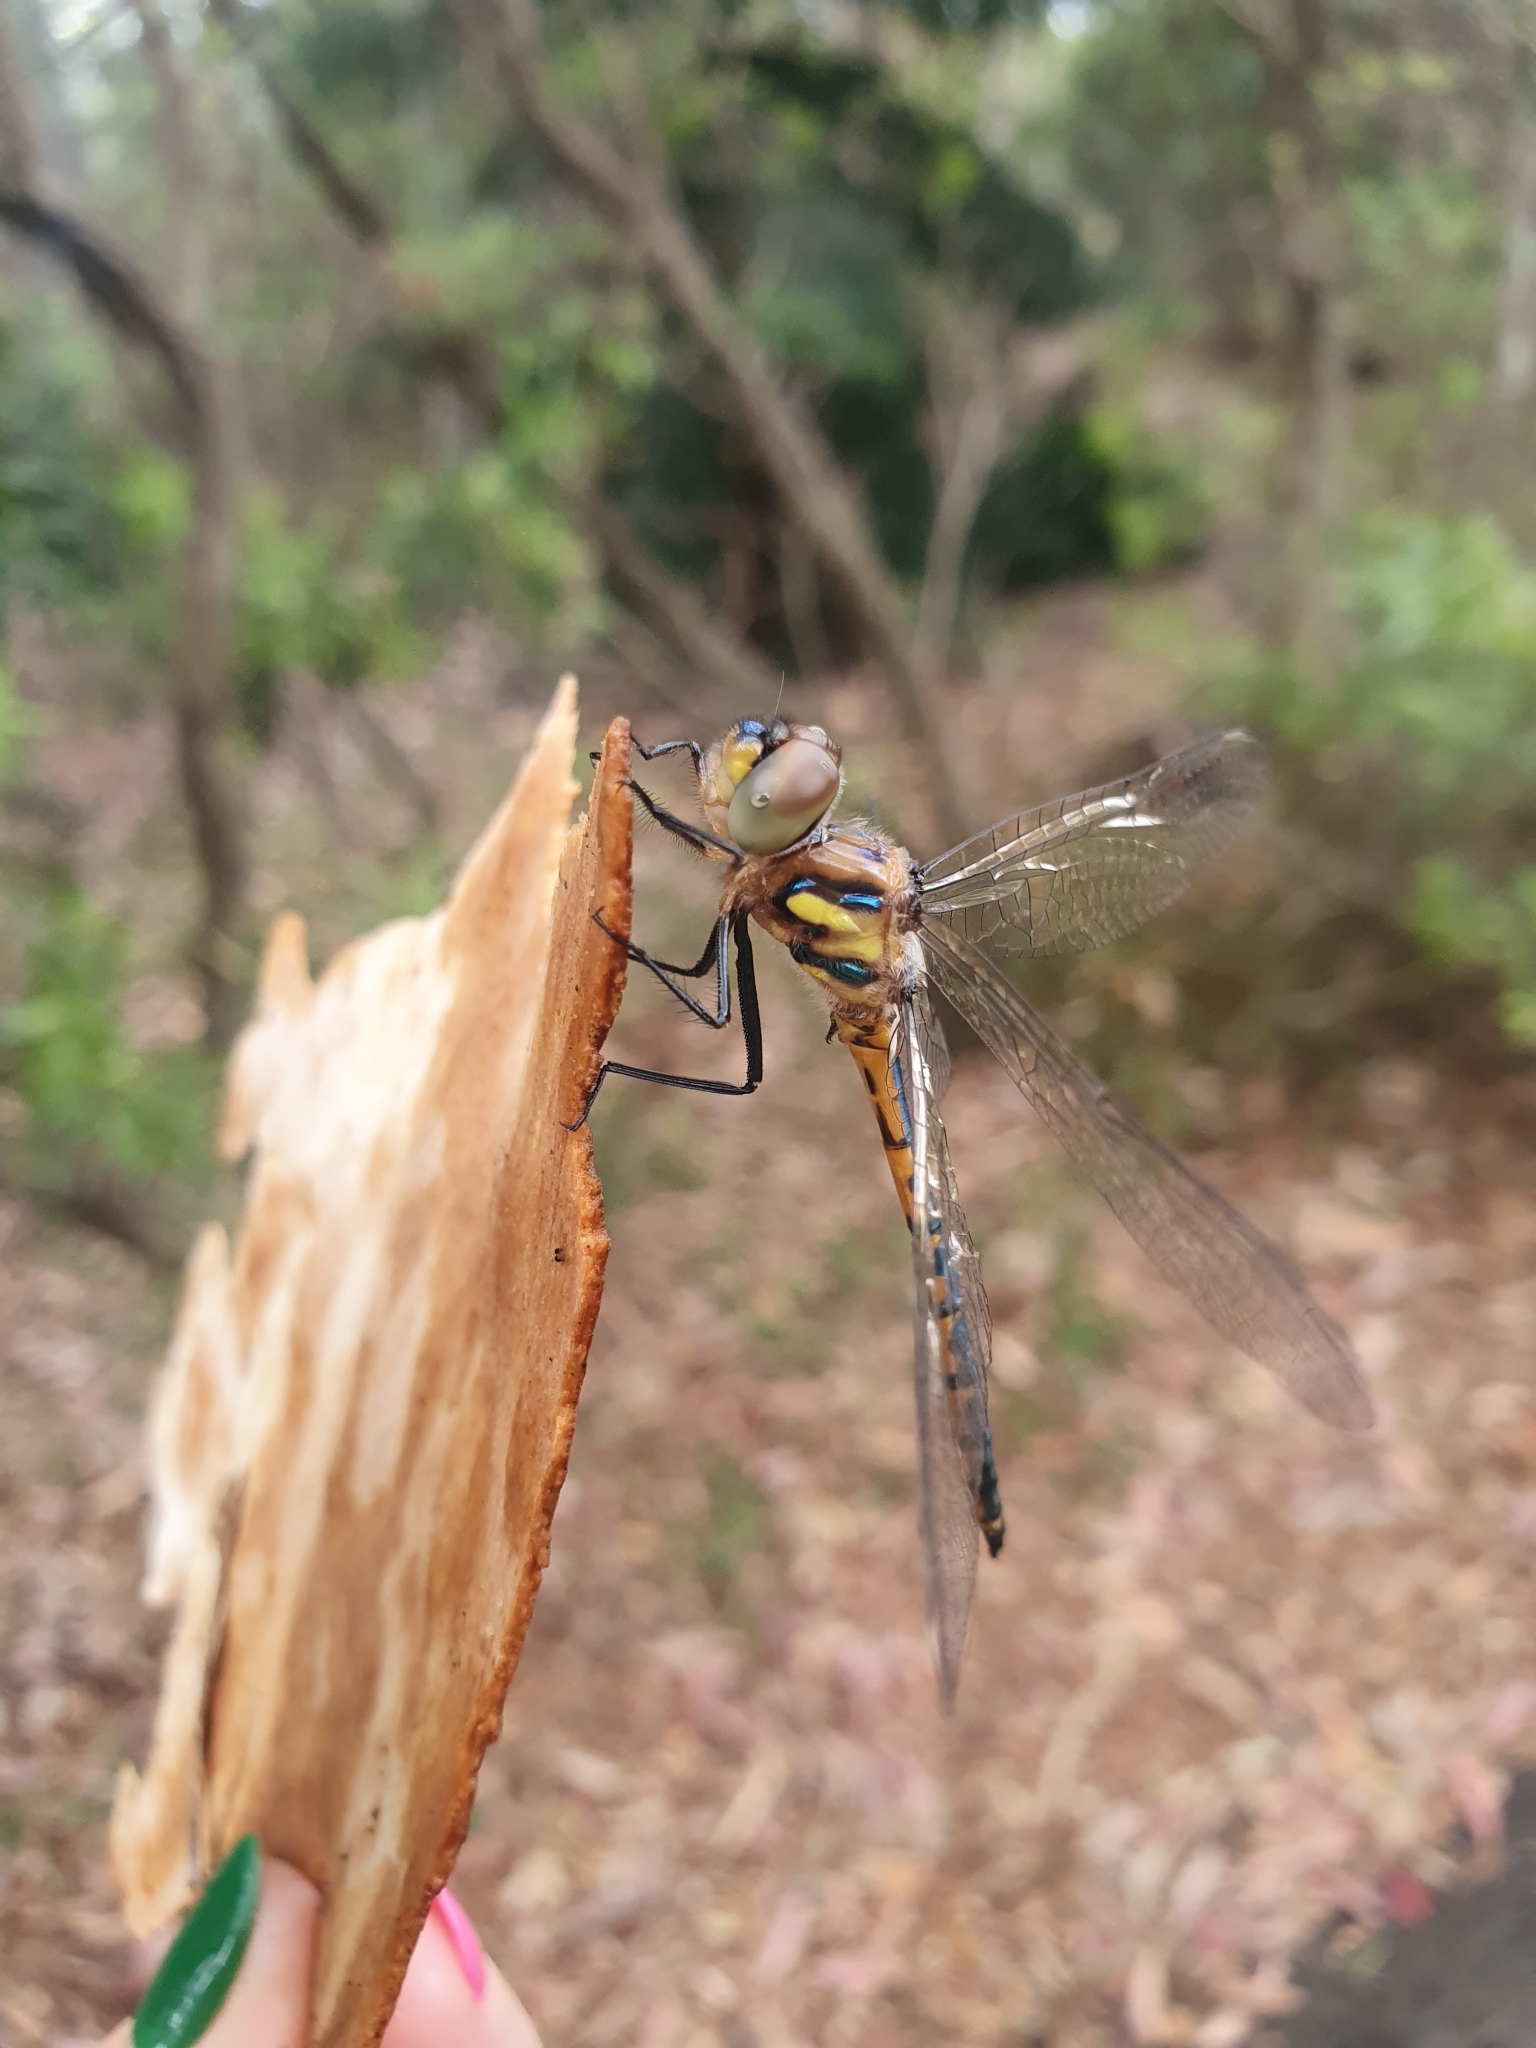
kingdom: Animalia
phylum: Arthropoda
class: Insecta
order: Odonata
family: Corduliidae
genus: Hemicordulia
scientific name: Hemicordulia australiae
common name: Sentry dragonfly
